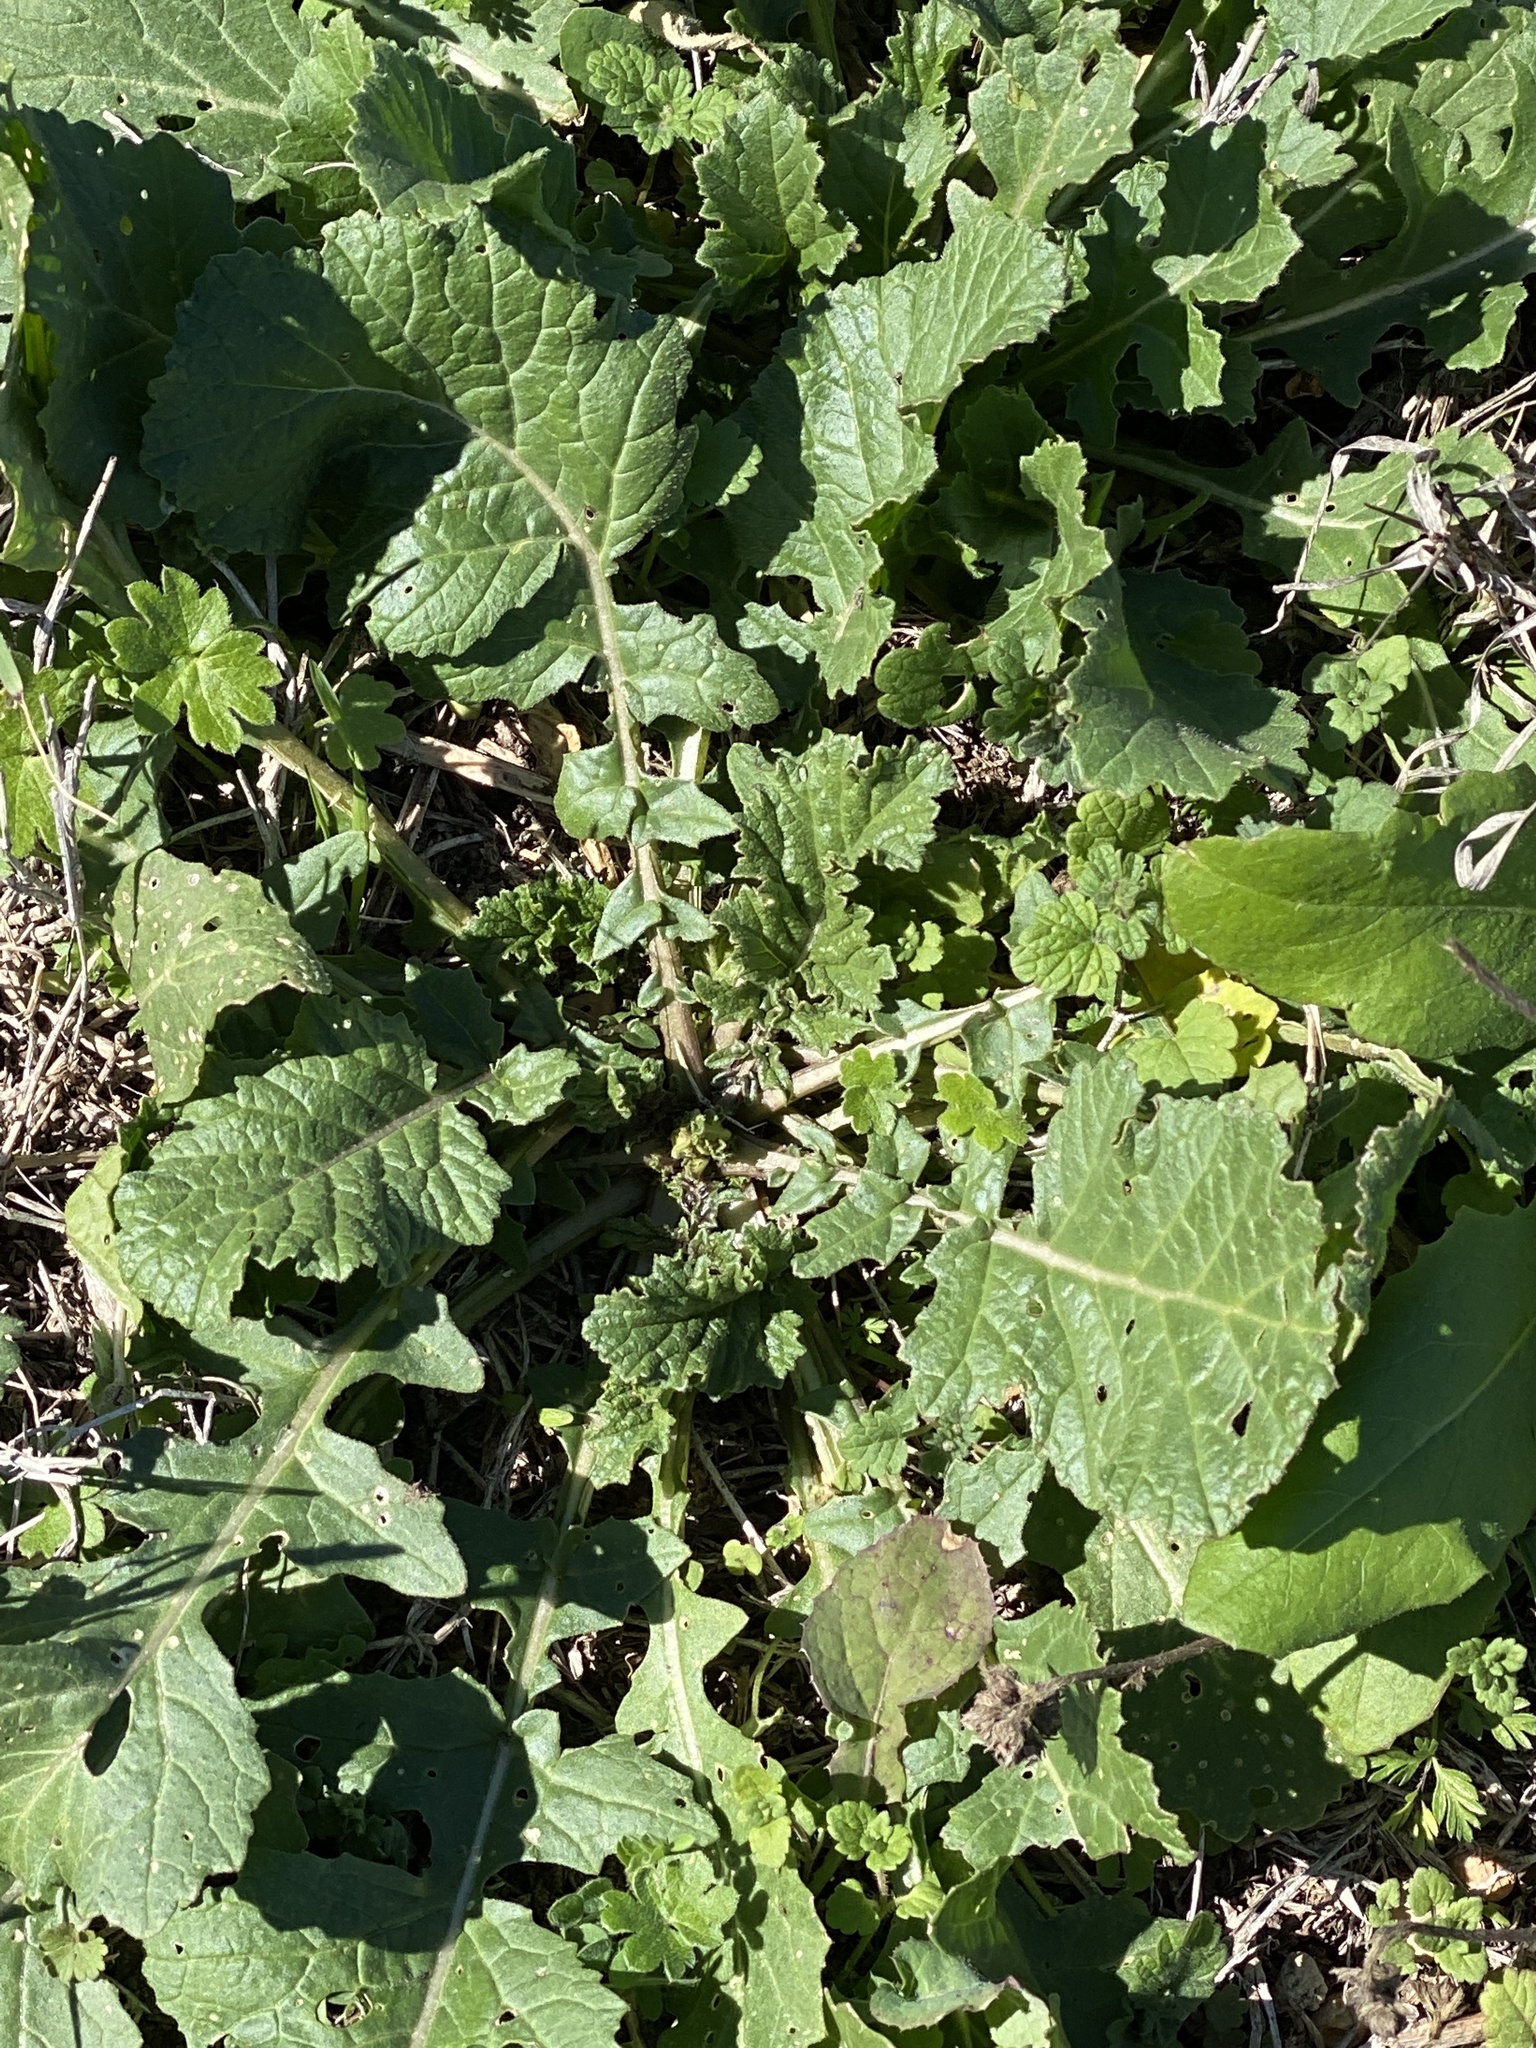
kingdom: Plantae
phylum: Tracheophyta
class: Magnoliopsida
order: Brassicales
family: Brassicaceae
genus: Rapistrum
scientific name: Rapistrum rugosum
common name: Annual bastardcabbage
